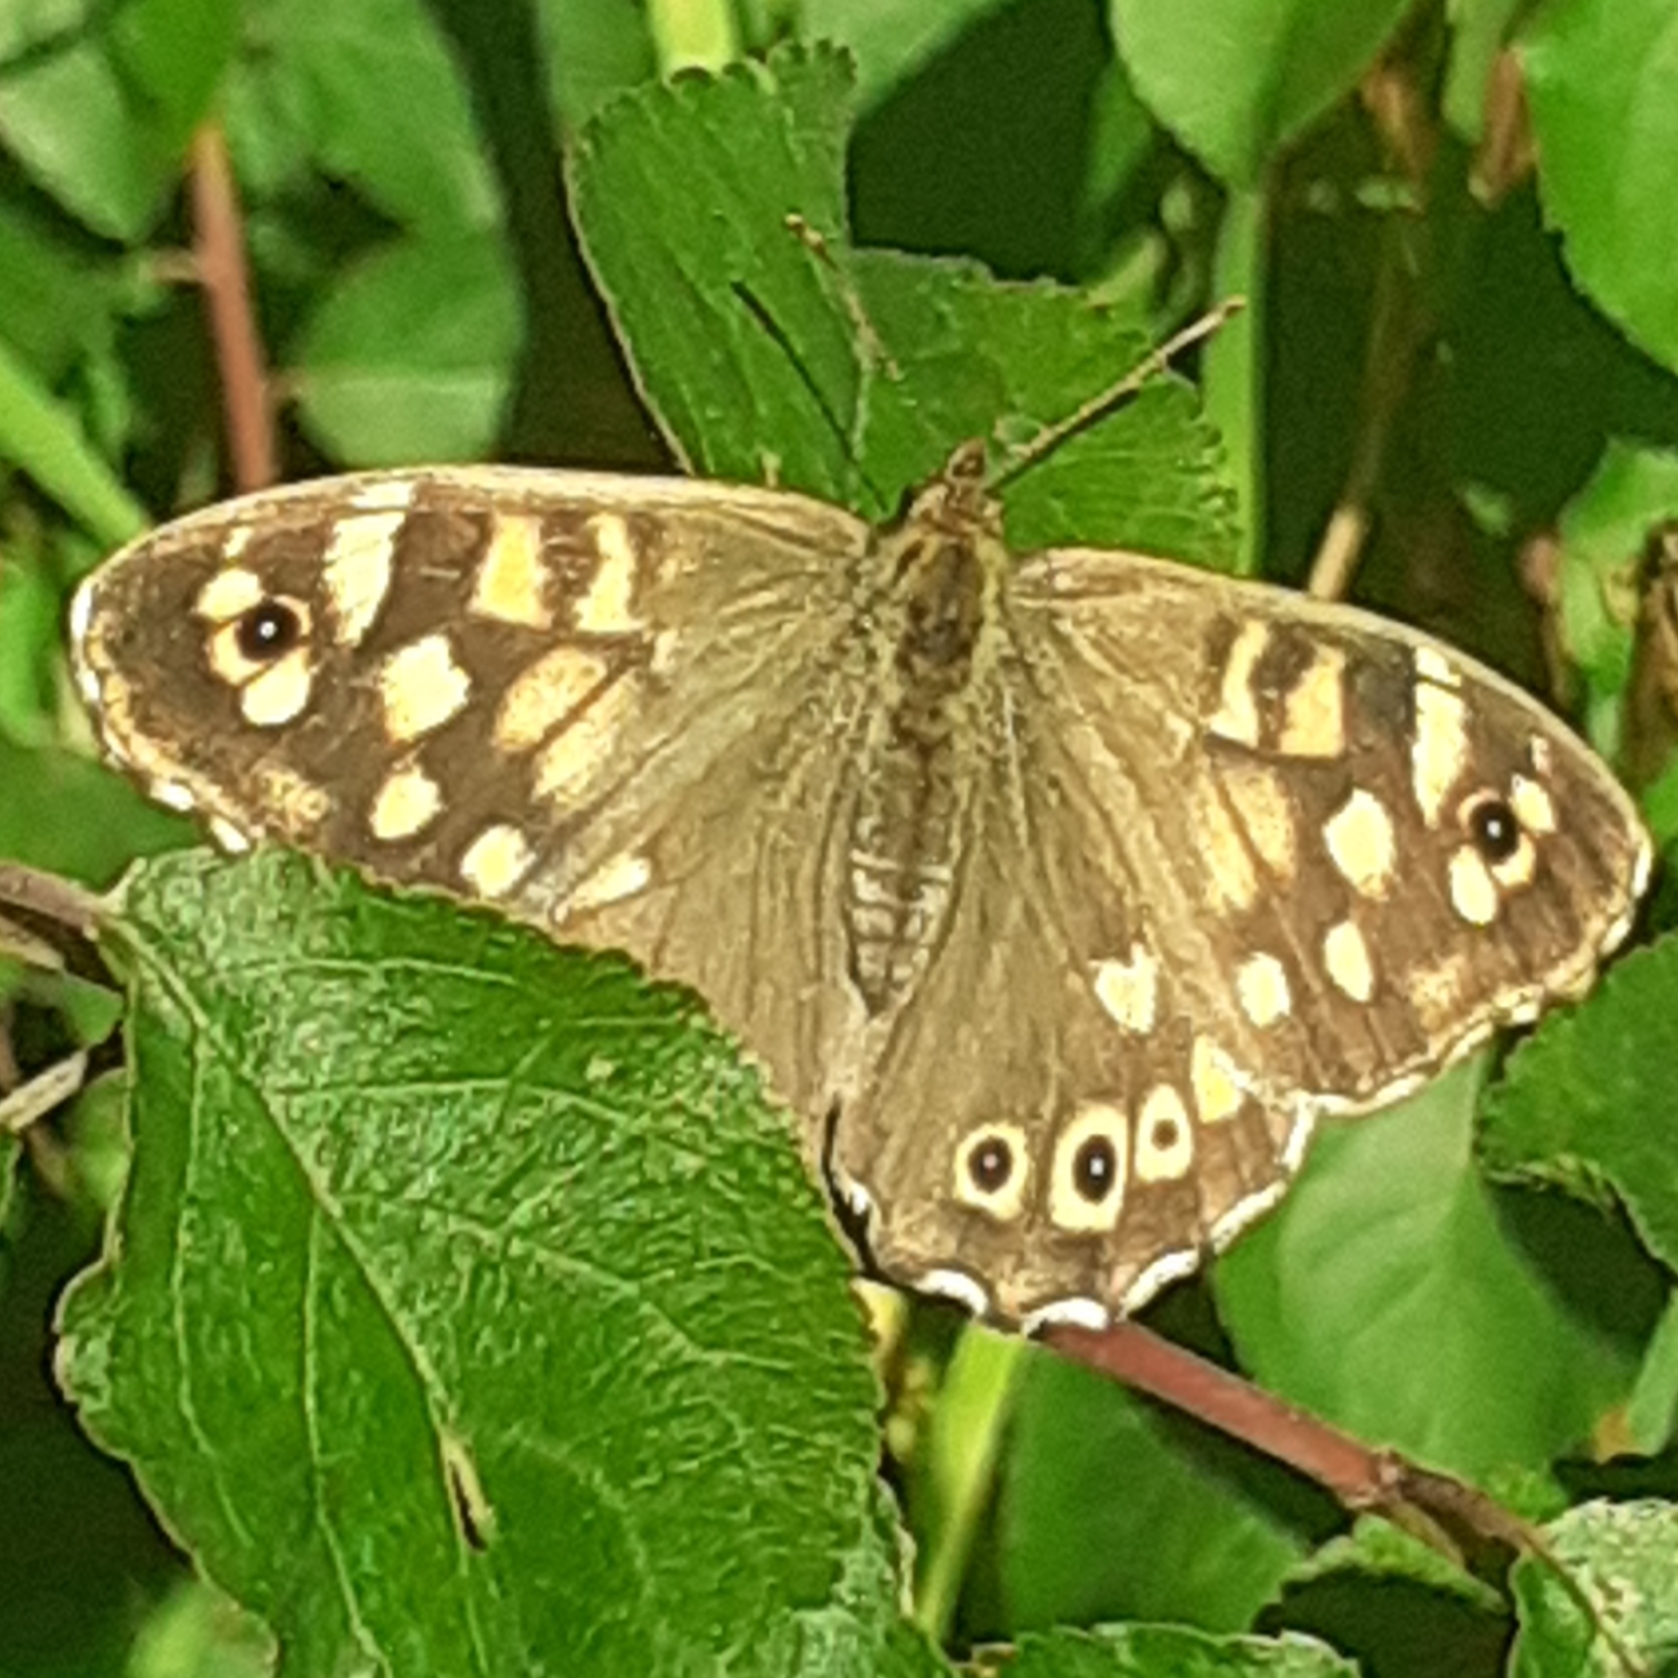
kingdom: Animalia
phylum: Arthropoda
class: Insecta
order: Lepidoptera
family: Nymphalidae
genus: Pararge
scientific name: Pararge aegeria
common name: Speckled wood
